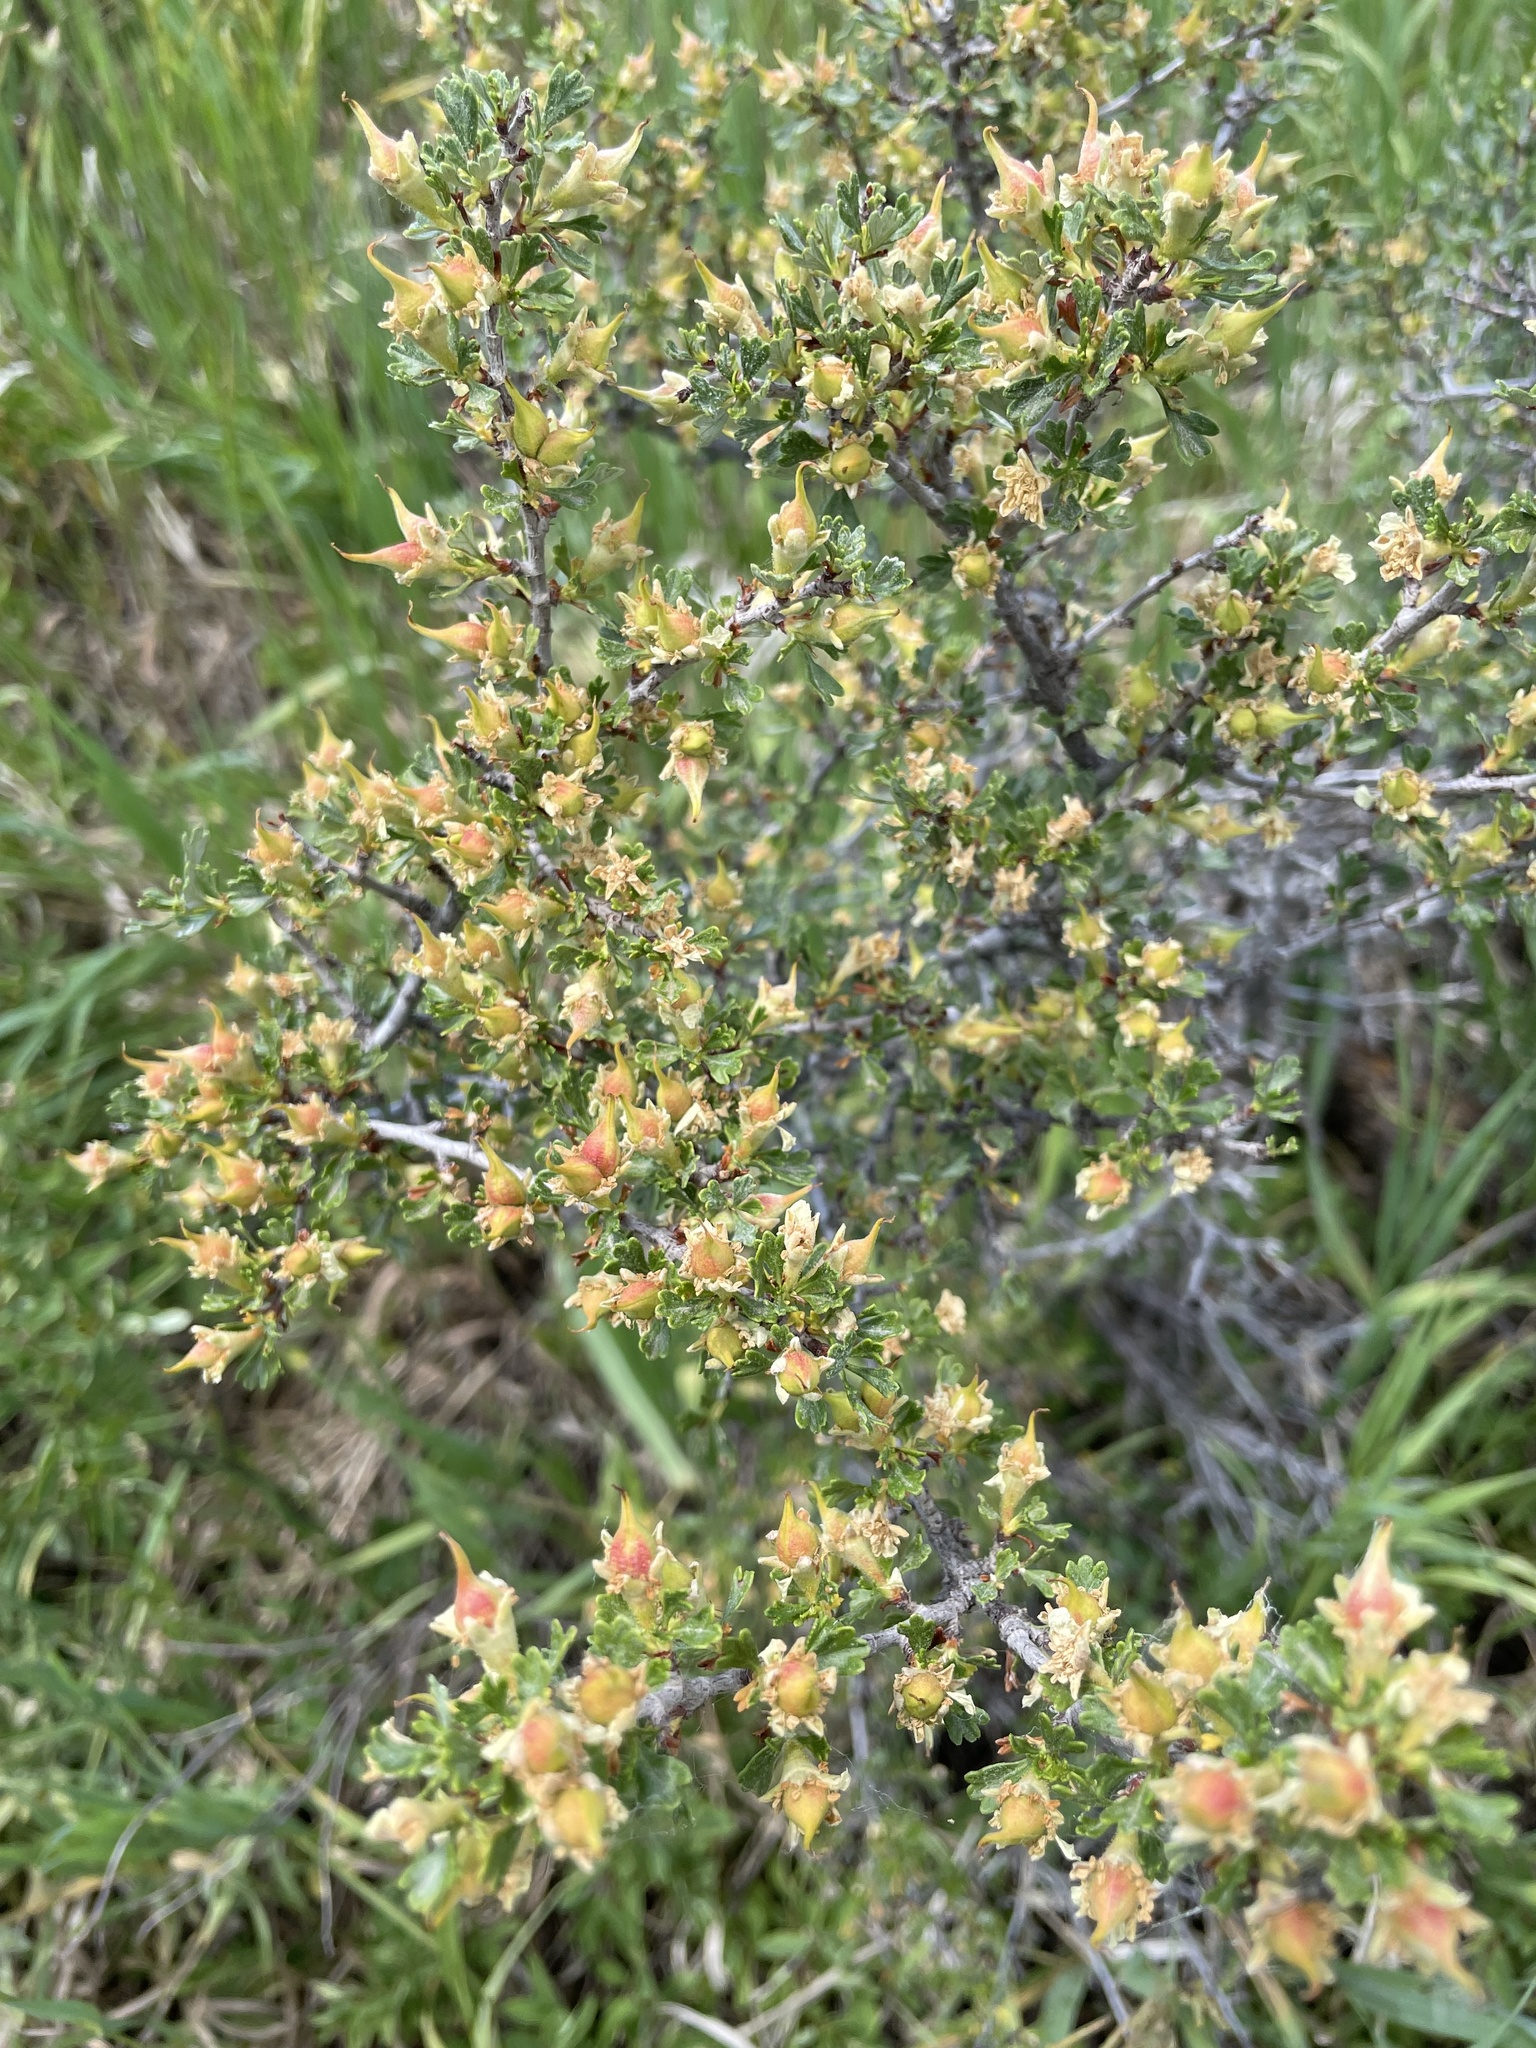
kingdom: Plantae
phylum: Tracheophyta
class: Magnoliopsida
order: Rosales
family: Rosaceae
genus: Purshia
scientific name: Purshia tridentata
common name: Antelope bitterbrush
